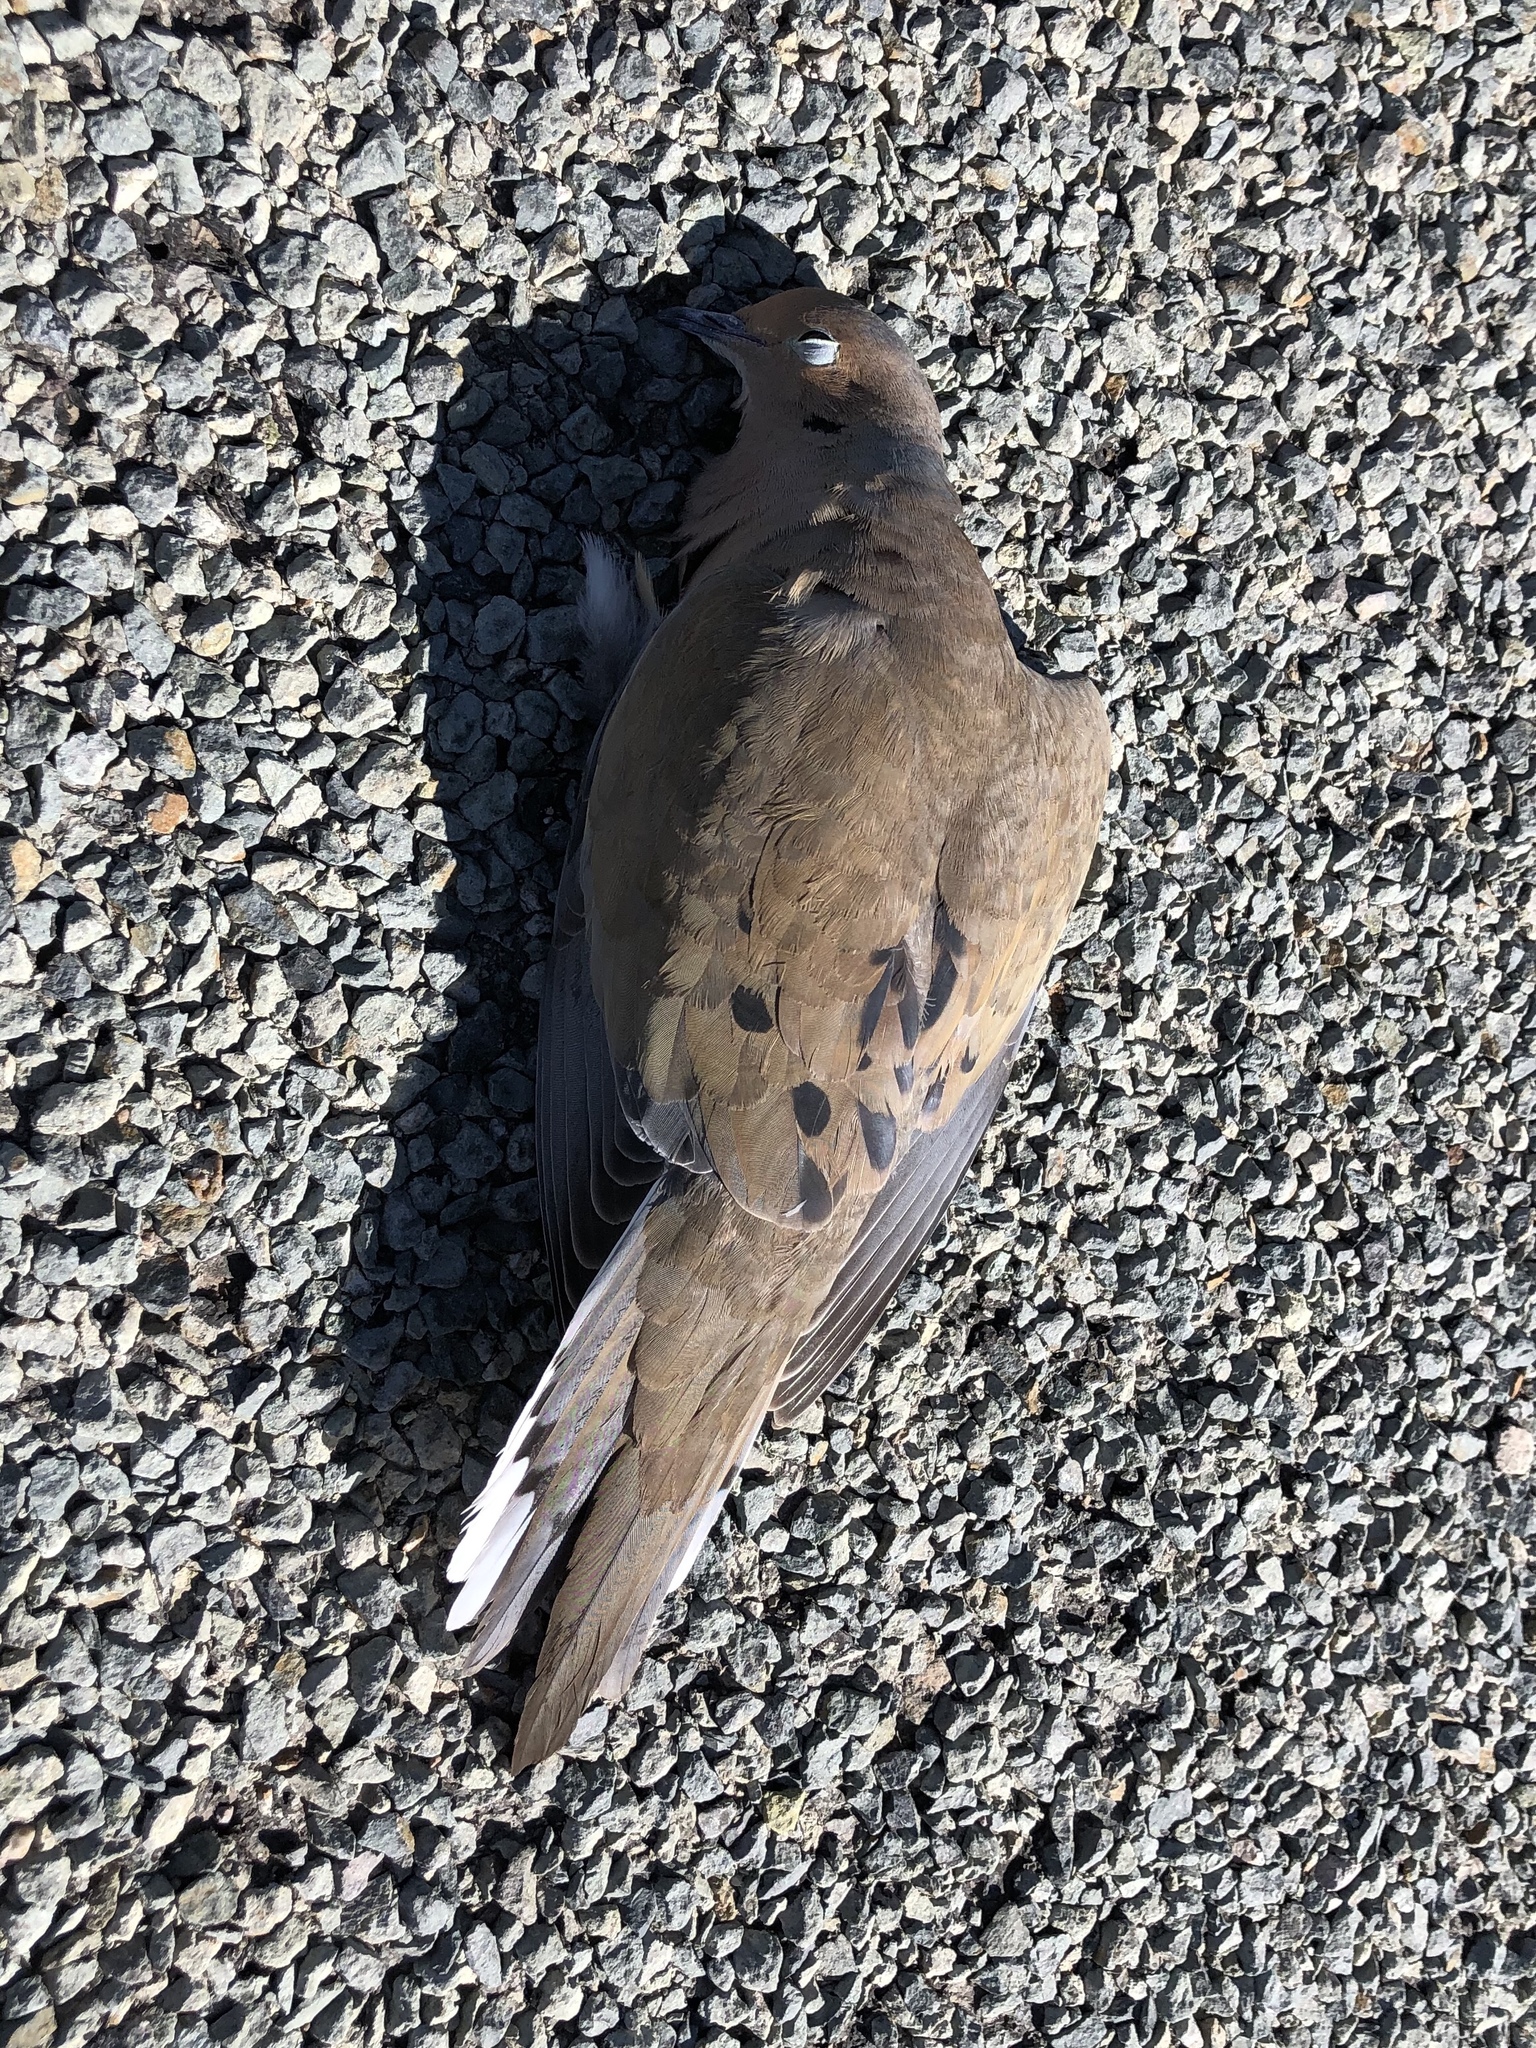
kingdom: Animalia
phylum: Chordata
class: Aves
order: Columbiformes
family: Columbidae
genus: Zenaida
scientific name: Zenaida macroura
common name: Mourning dove
